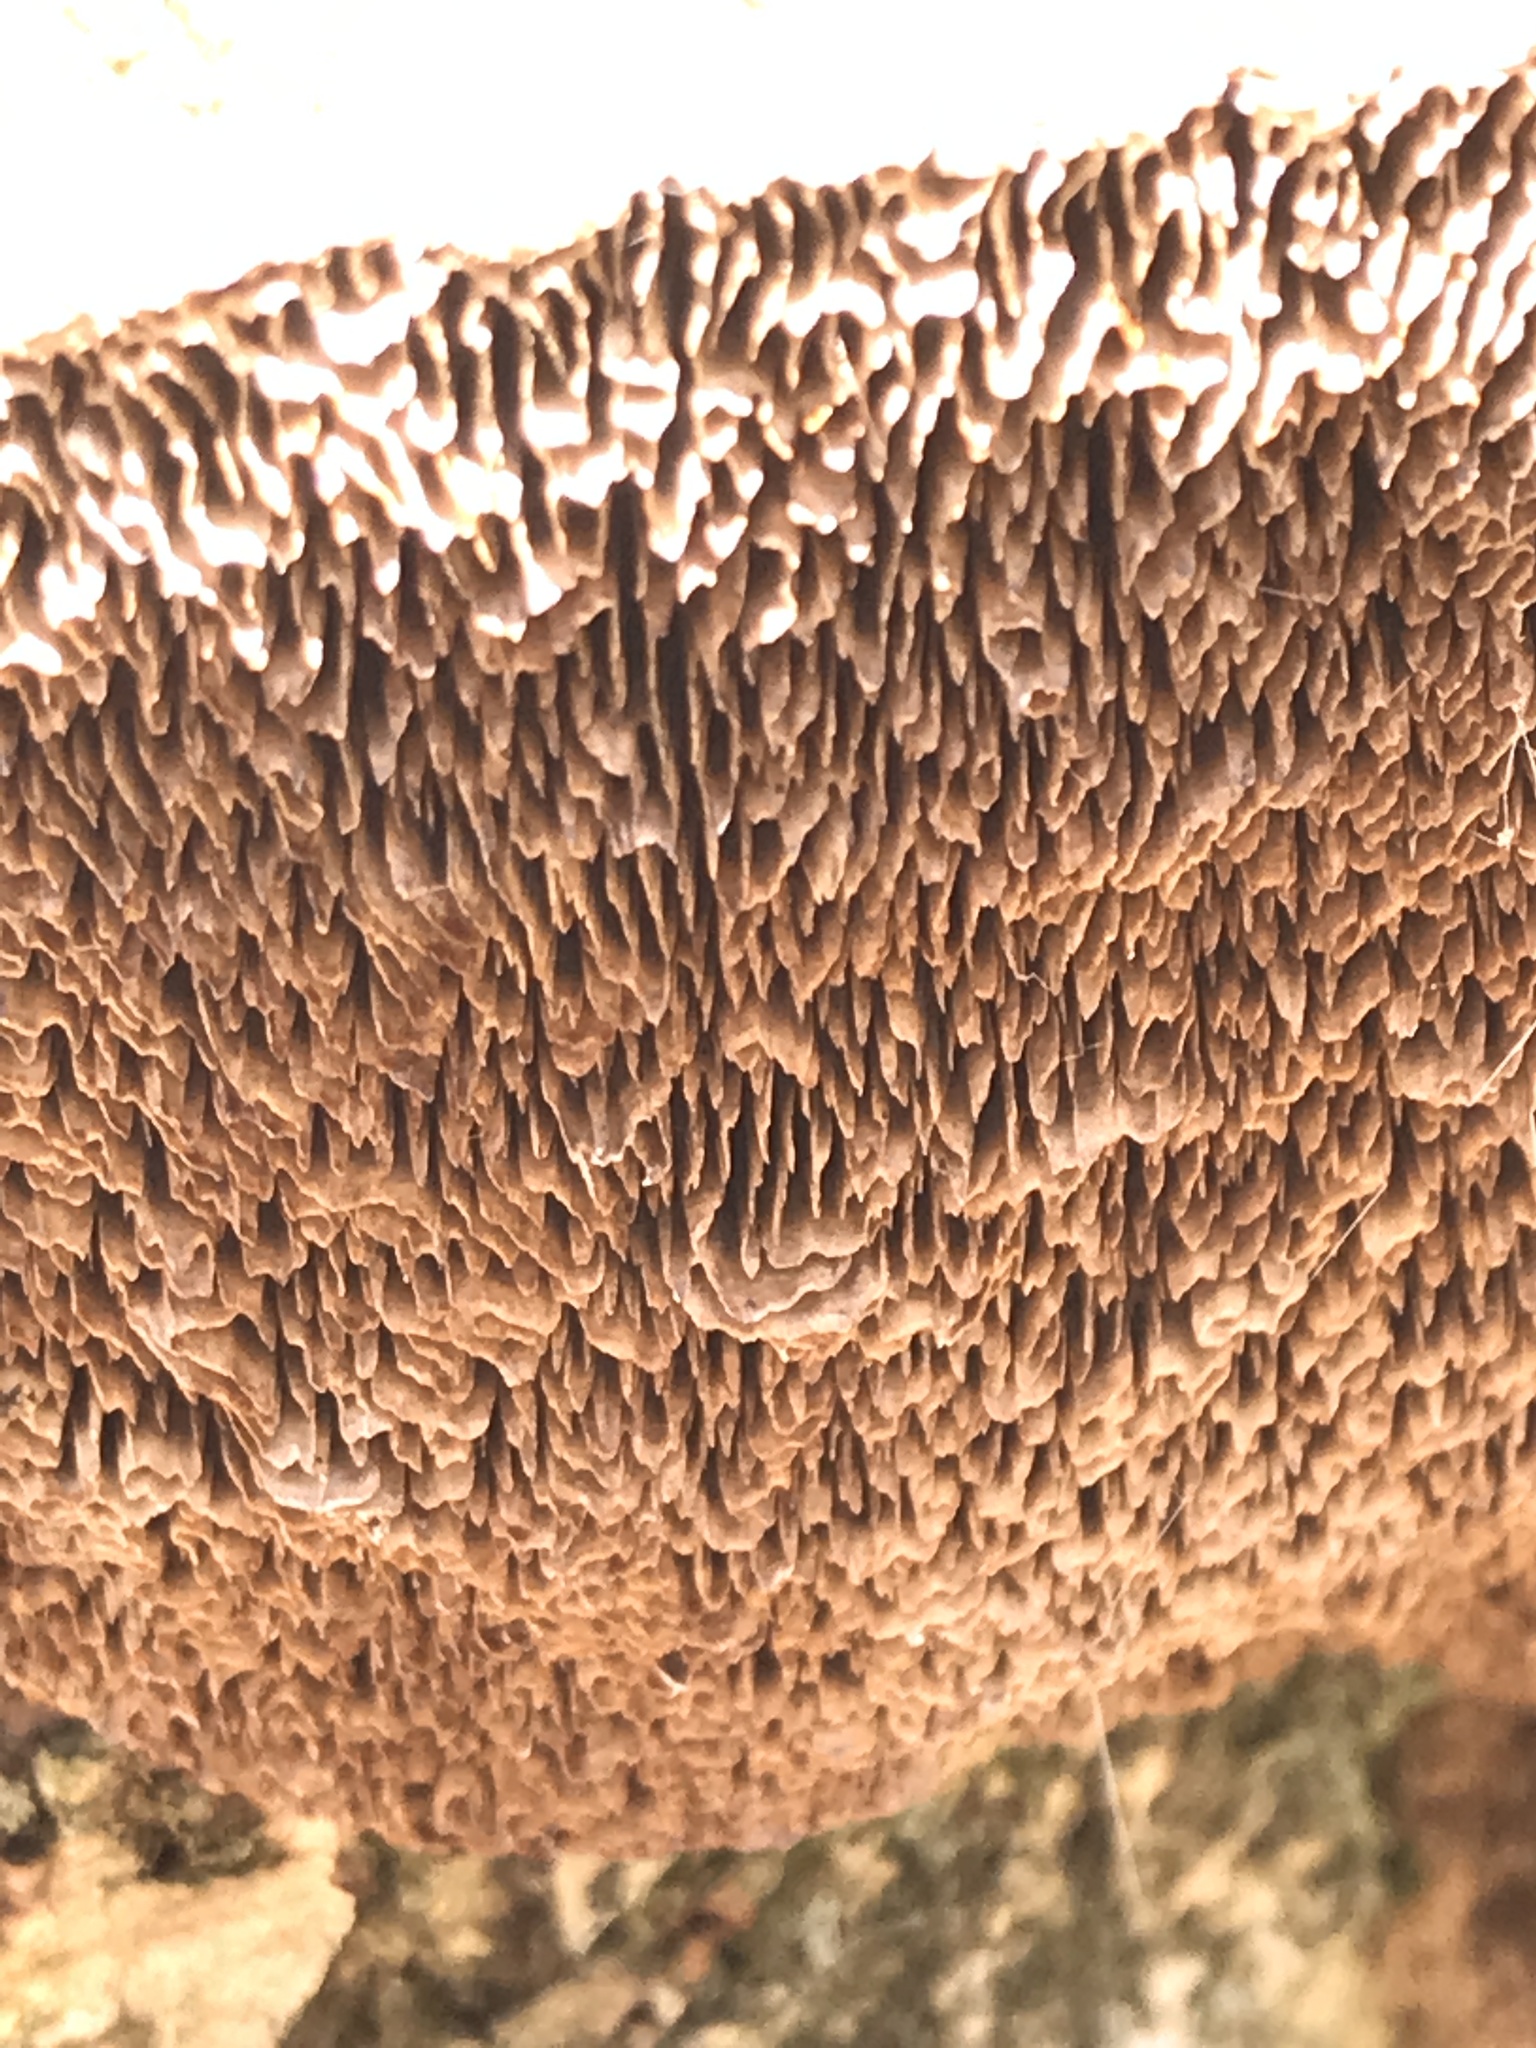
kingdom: Fungi
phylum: Basidiomycota
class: Agaricomycetes
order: Polyporales
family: Polyporaceae
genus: Daedaleopsis
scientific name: Daedaleopsis confragosa
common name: Blushing bracket
